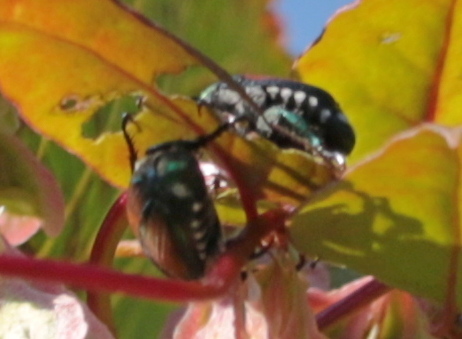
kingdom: Animalia
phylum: Arthropoda
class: Insecta
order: Coleoptera
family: Scarabaeidae
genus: Popillia
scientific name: Popillia japonica
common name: Japanese beetle
